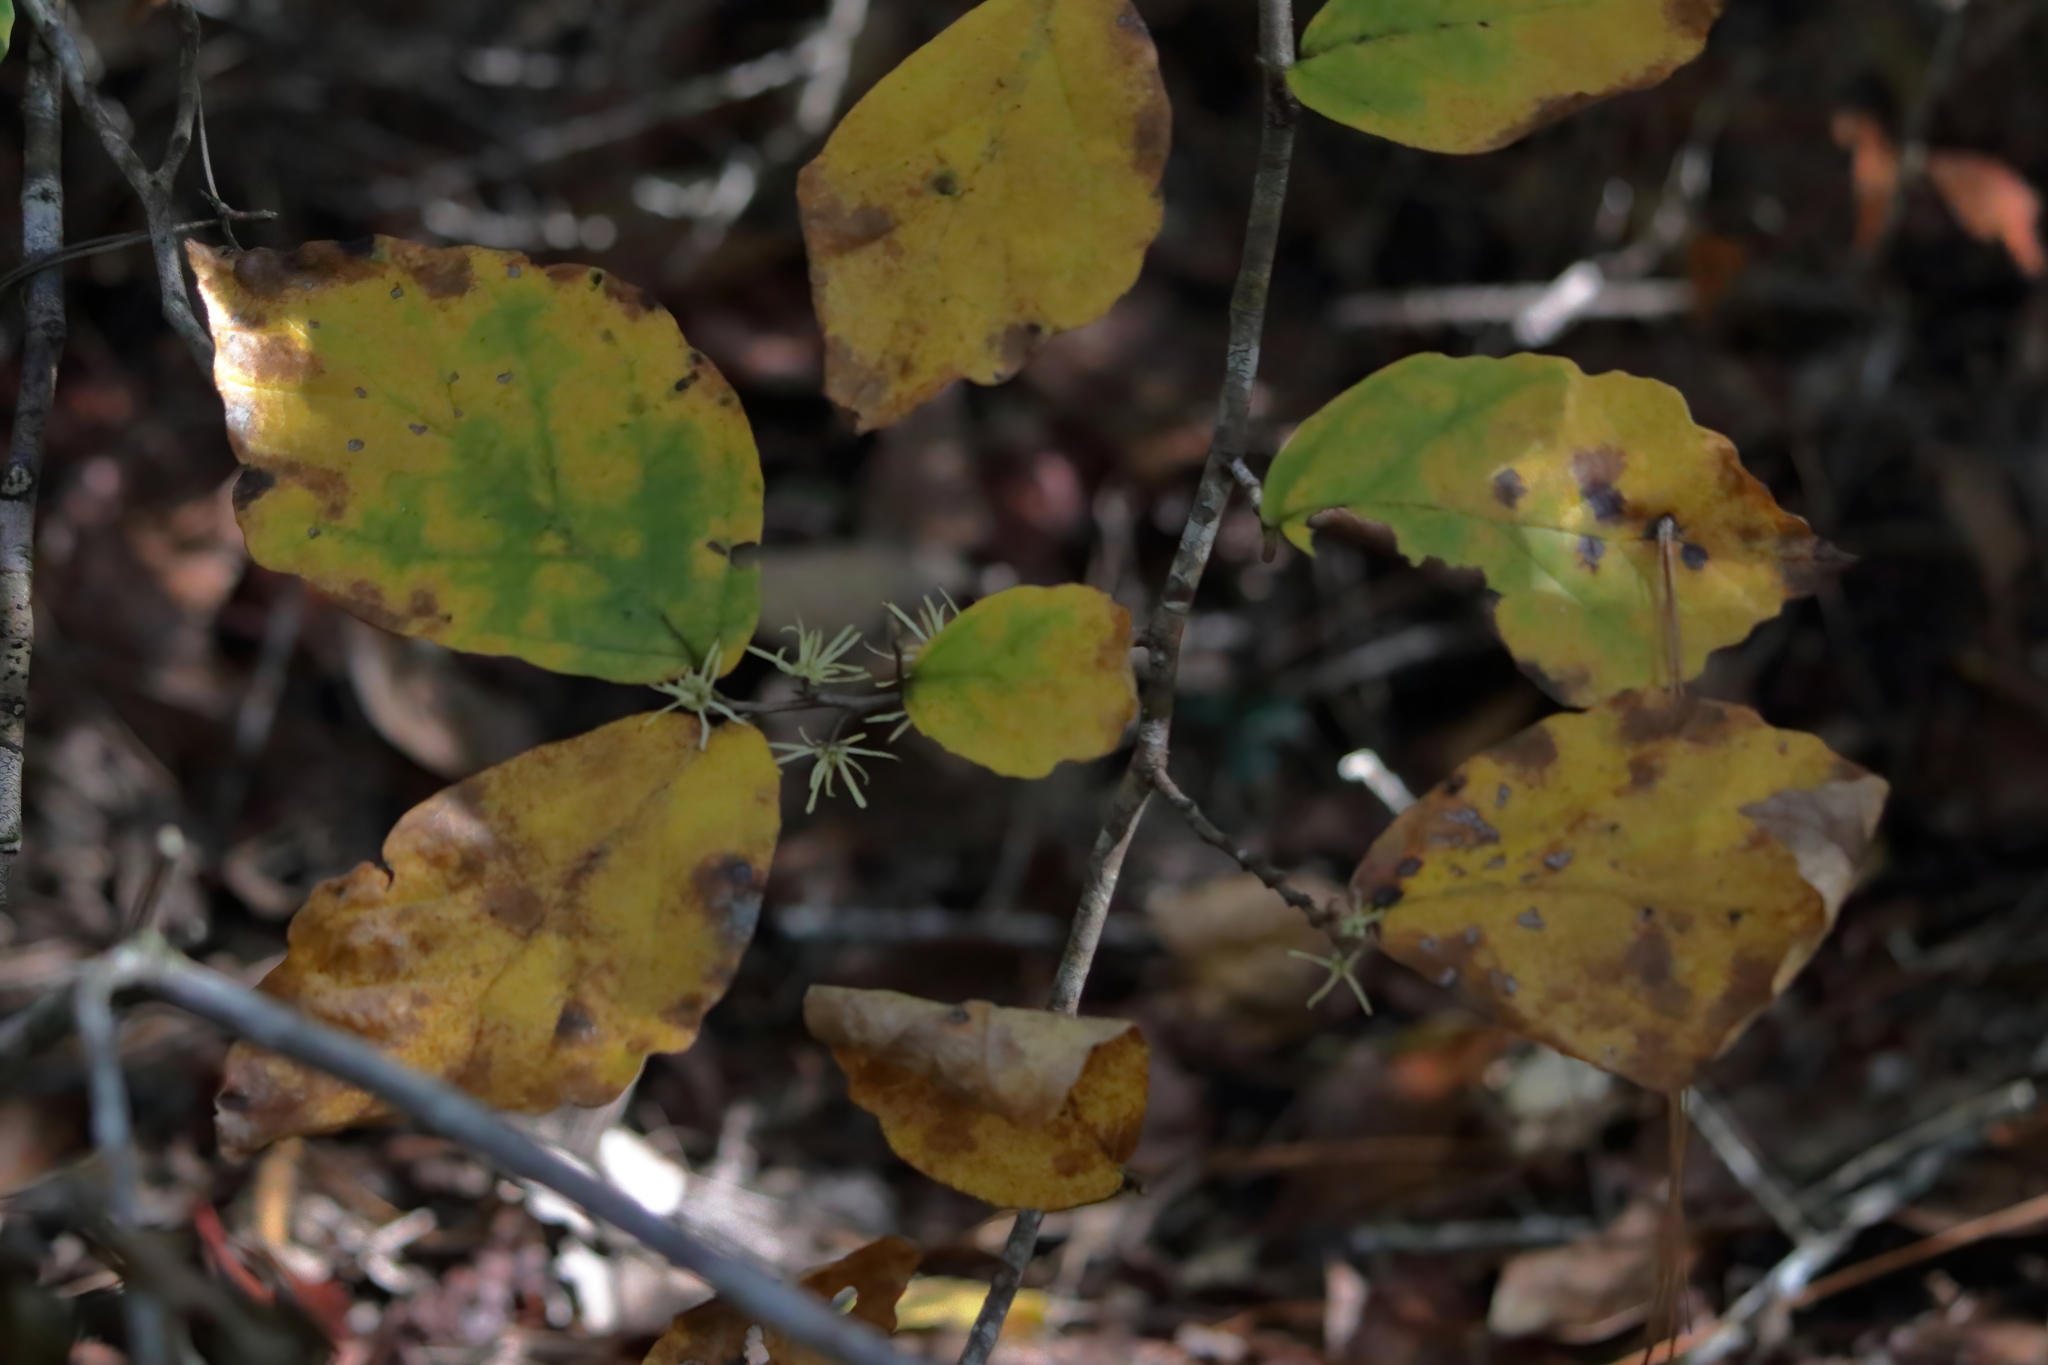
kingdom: Plantae
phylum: Tracheophyta
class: Magnoliopsida
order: Saxifragales
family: Hamamelidaceae
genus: Hamamelis
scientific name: Hamamelis virginiana
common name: Witch-hazel
